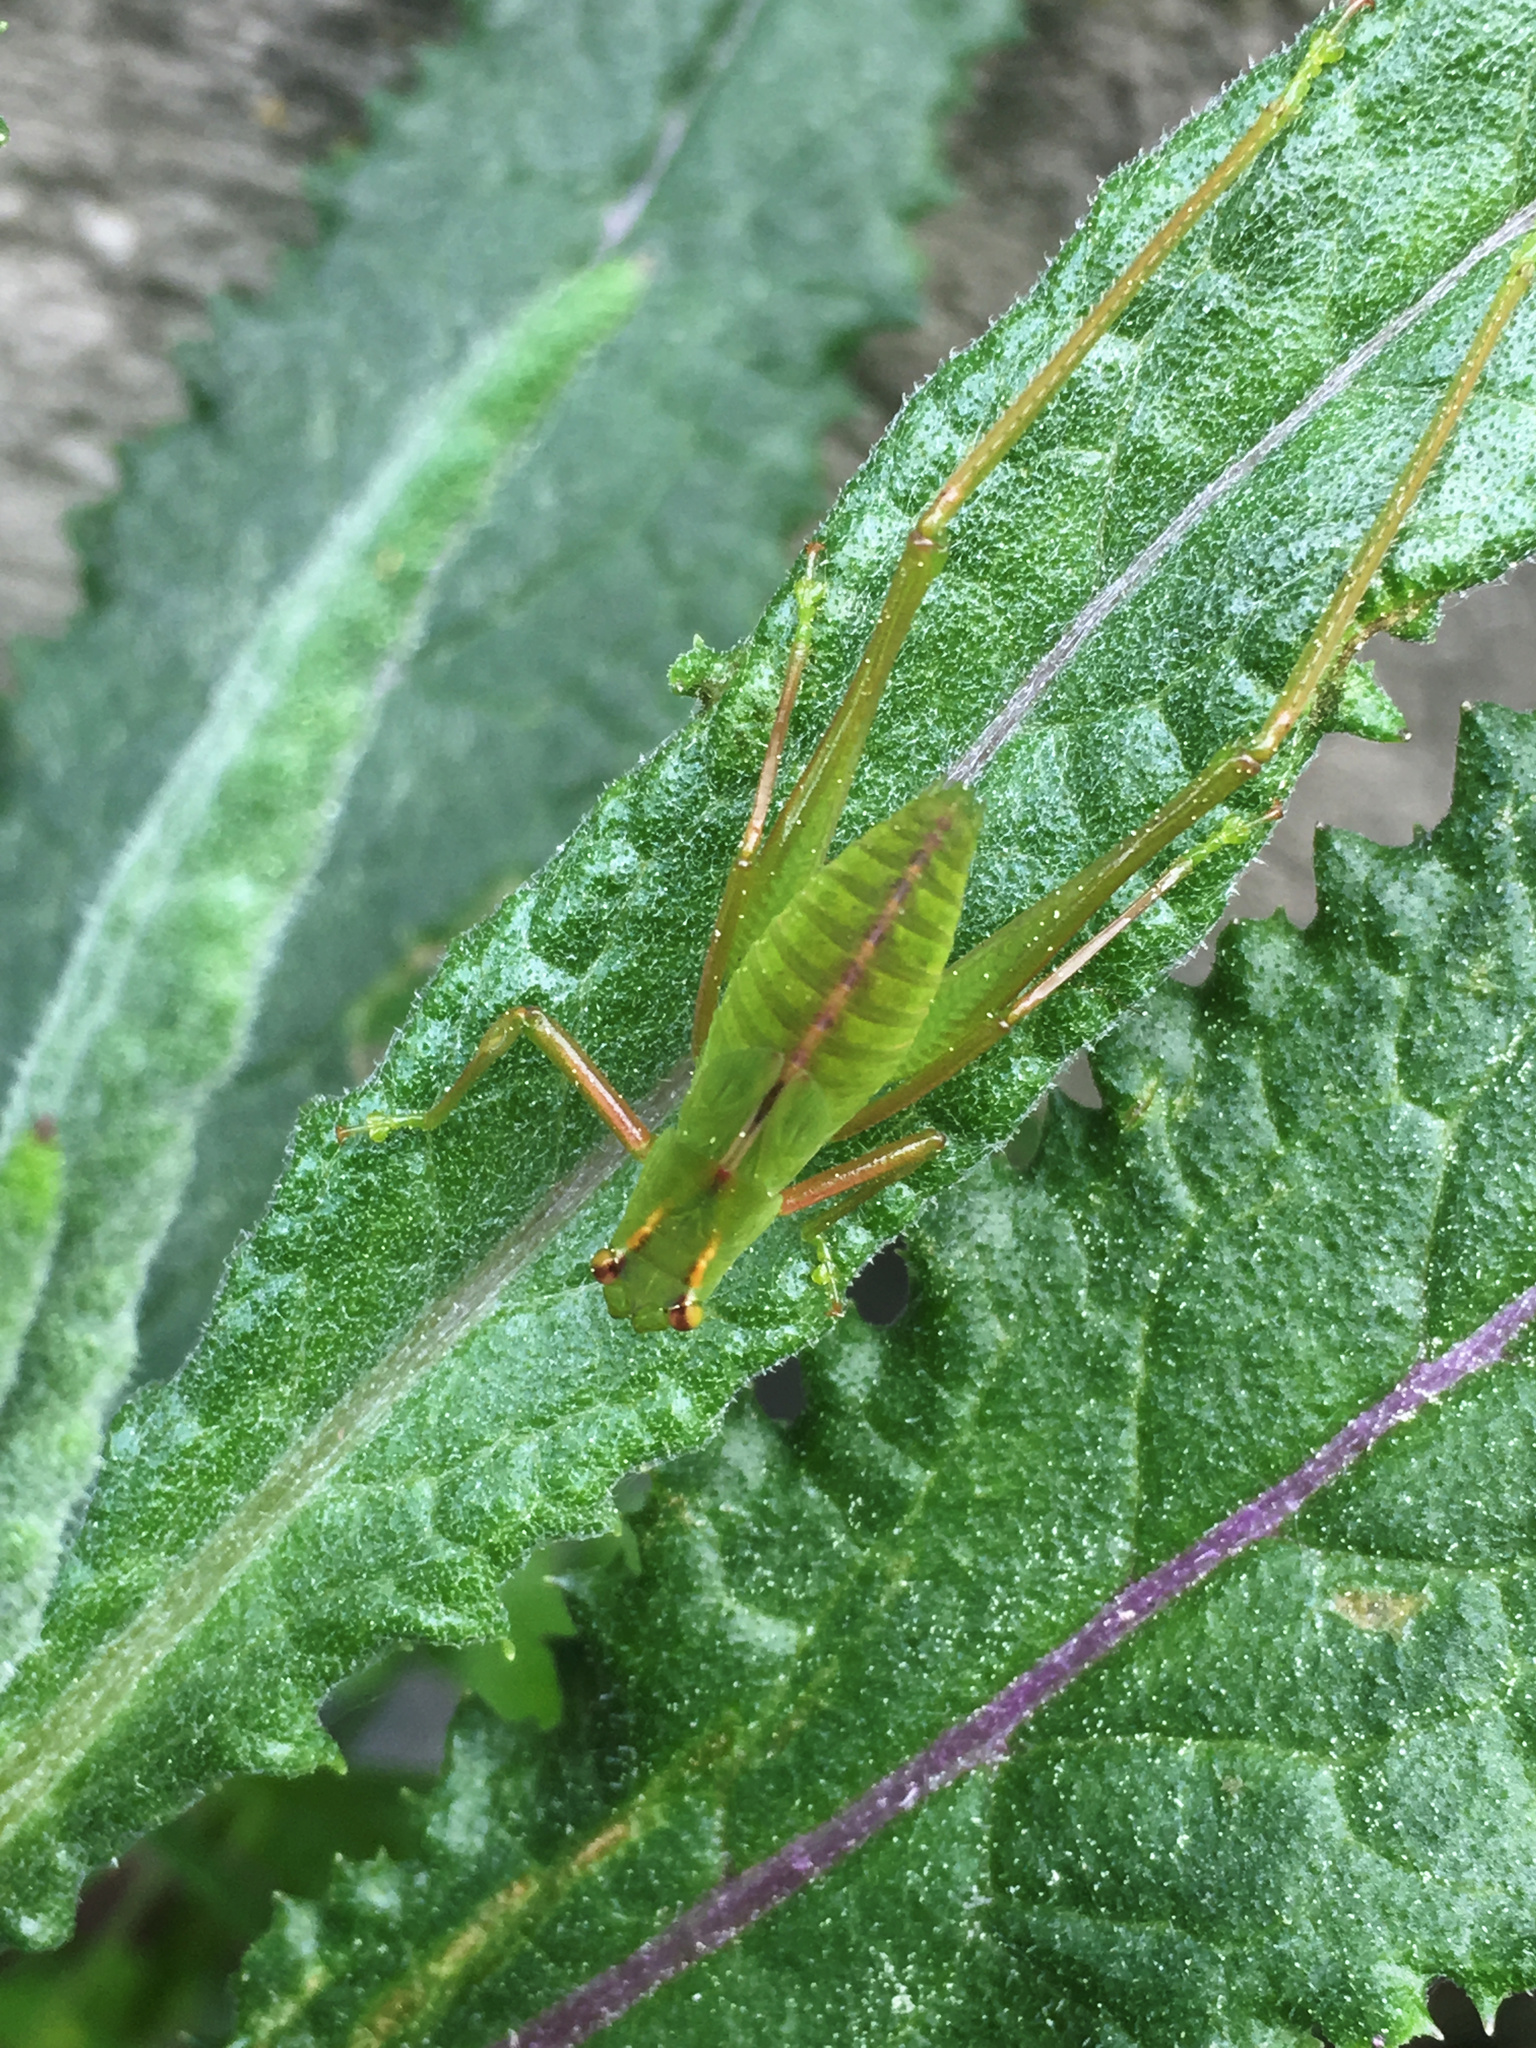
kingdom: Animalia
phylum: Arthropoda
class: Insecta
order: Orthoptera
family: Tettigoniidae
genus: Caedicia
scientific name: Caedicia simplex
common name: Common garden katydid
